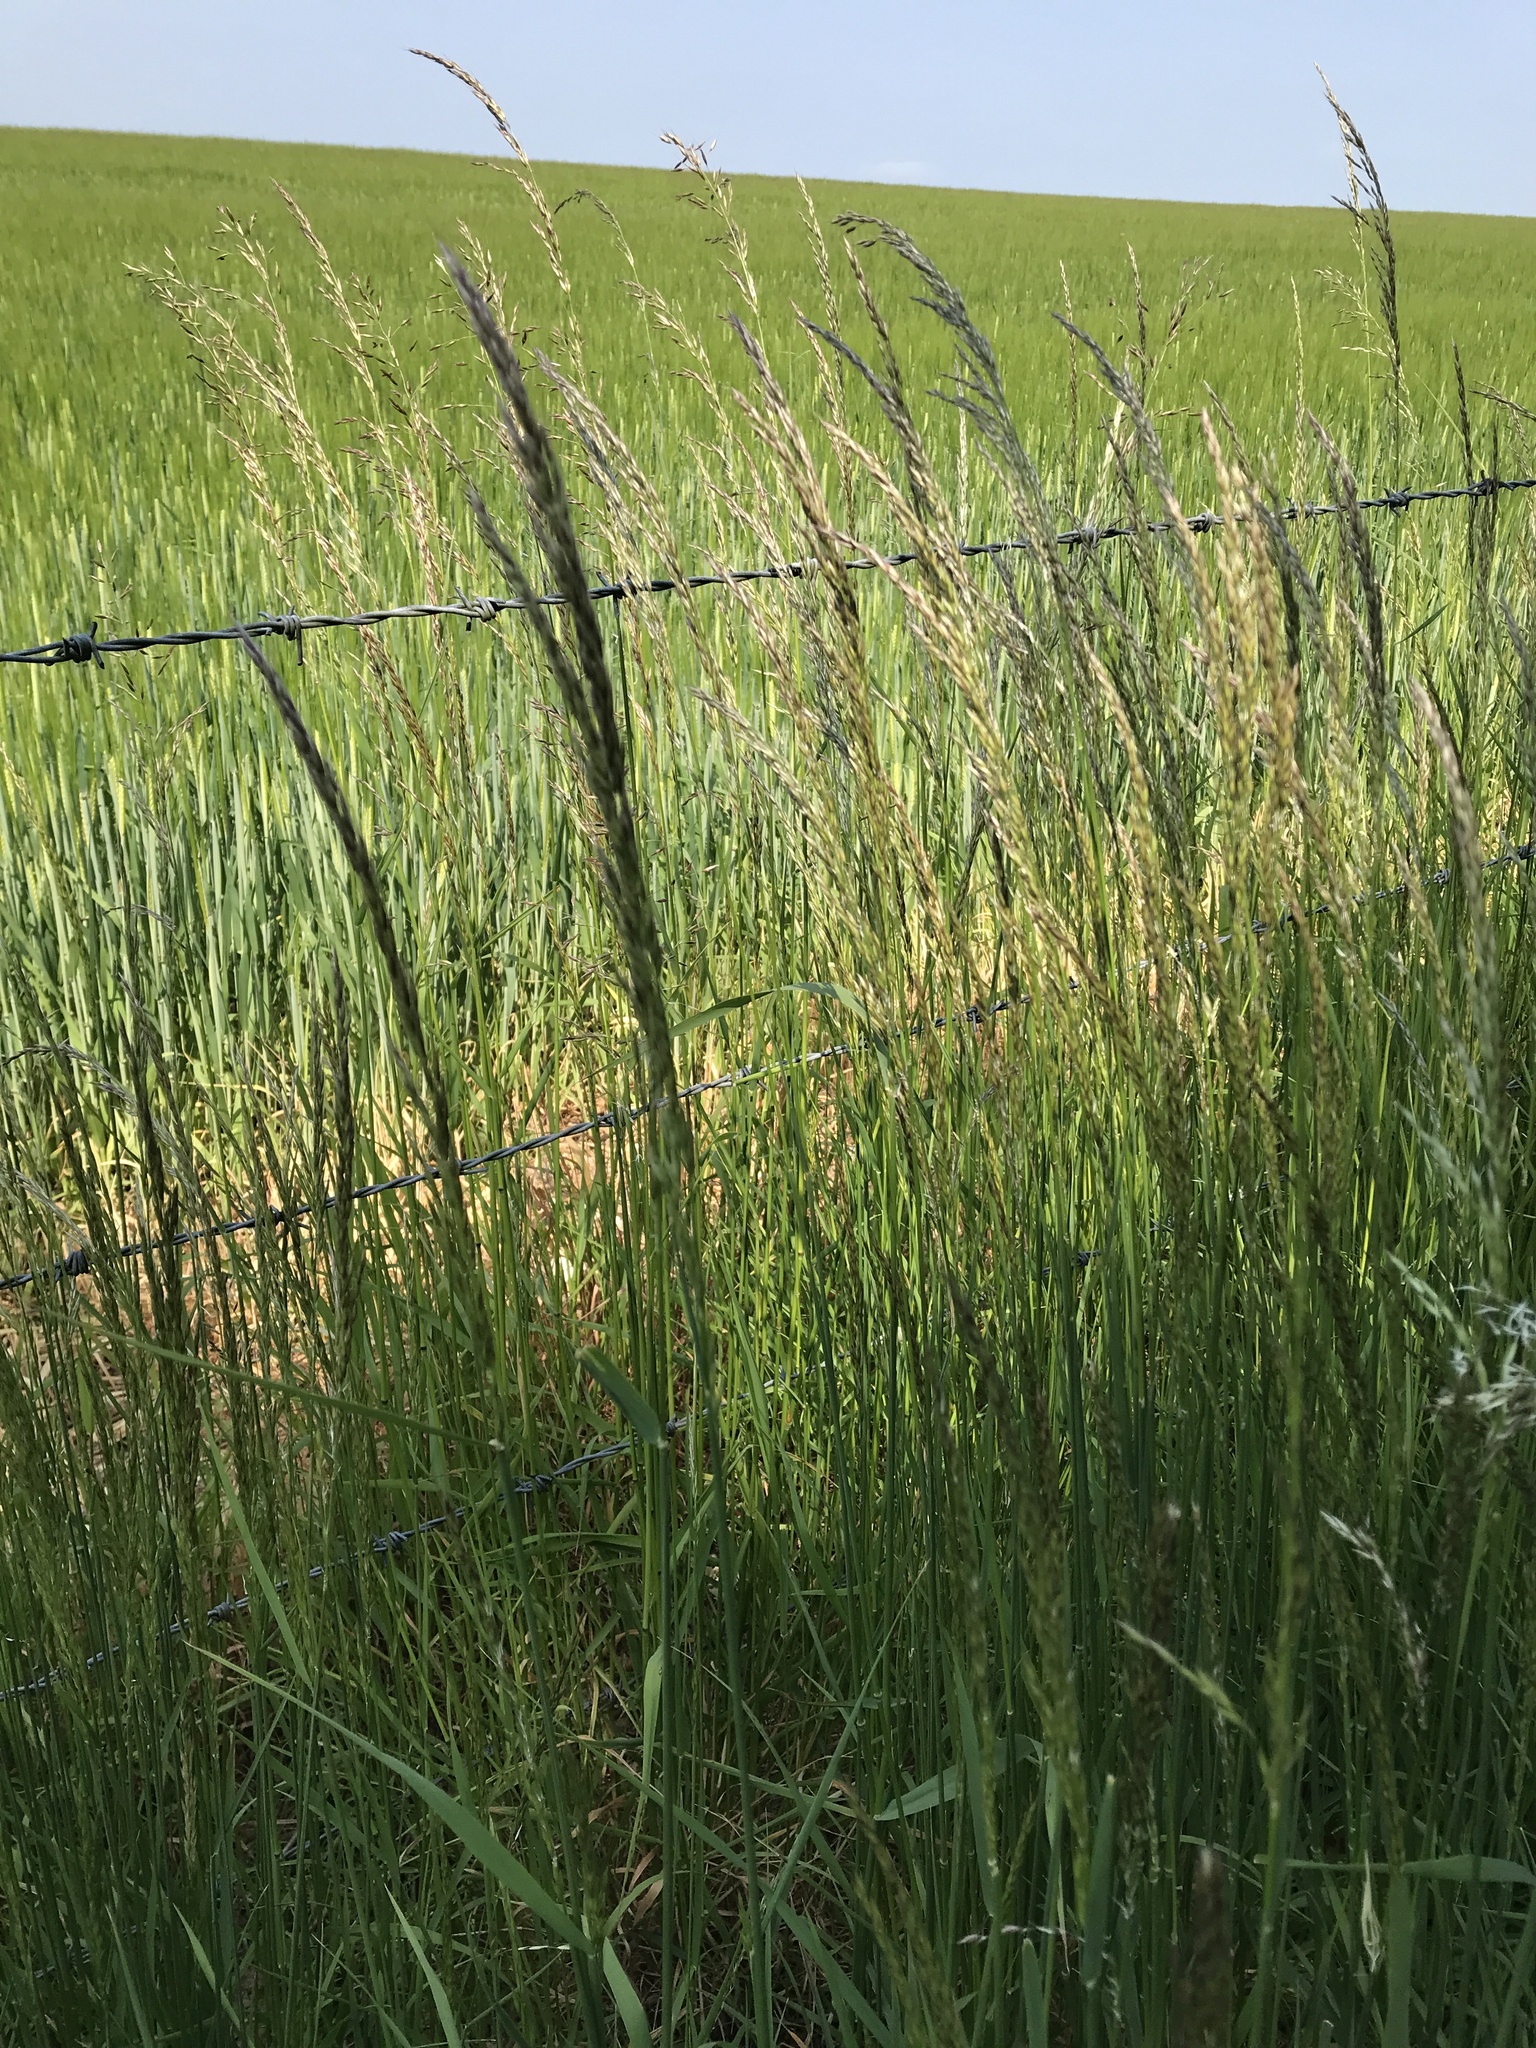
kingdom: Plantae
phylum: Tracheophyta
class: Liliopsida
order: Poales
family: Poaceae
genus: Arrhenatherum
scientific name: Arrhenatherum elatius
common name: Tall oatgrass
